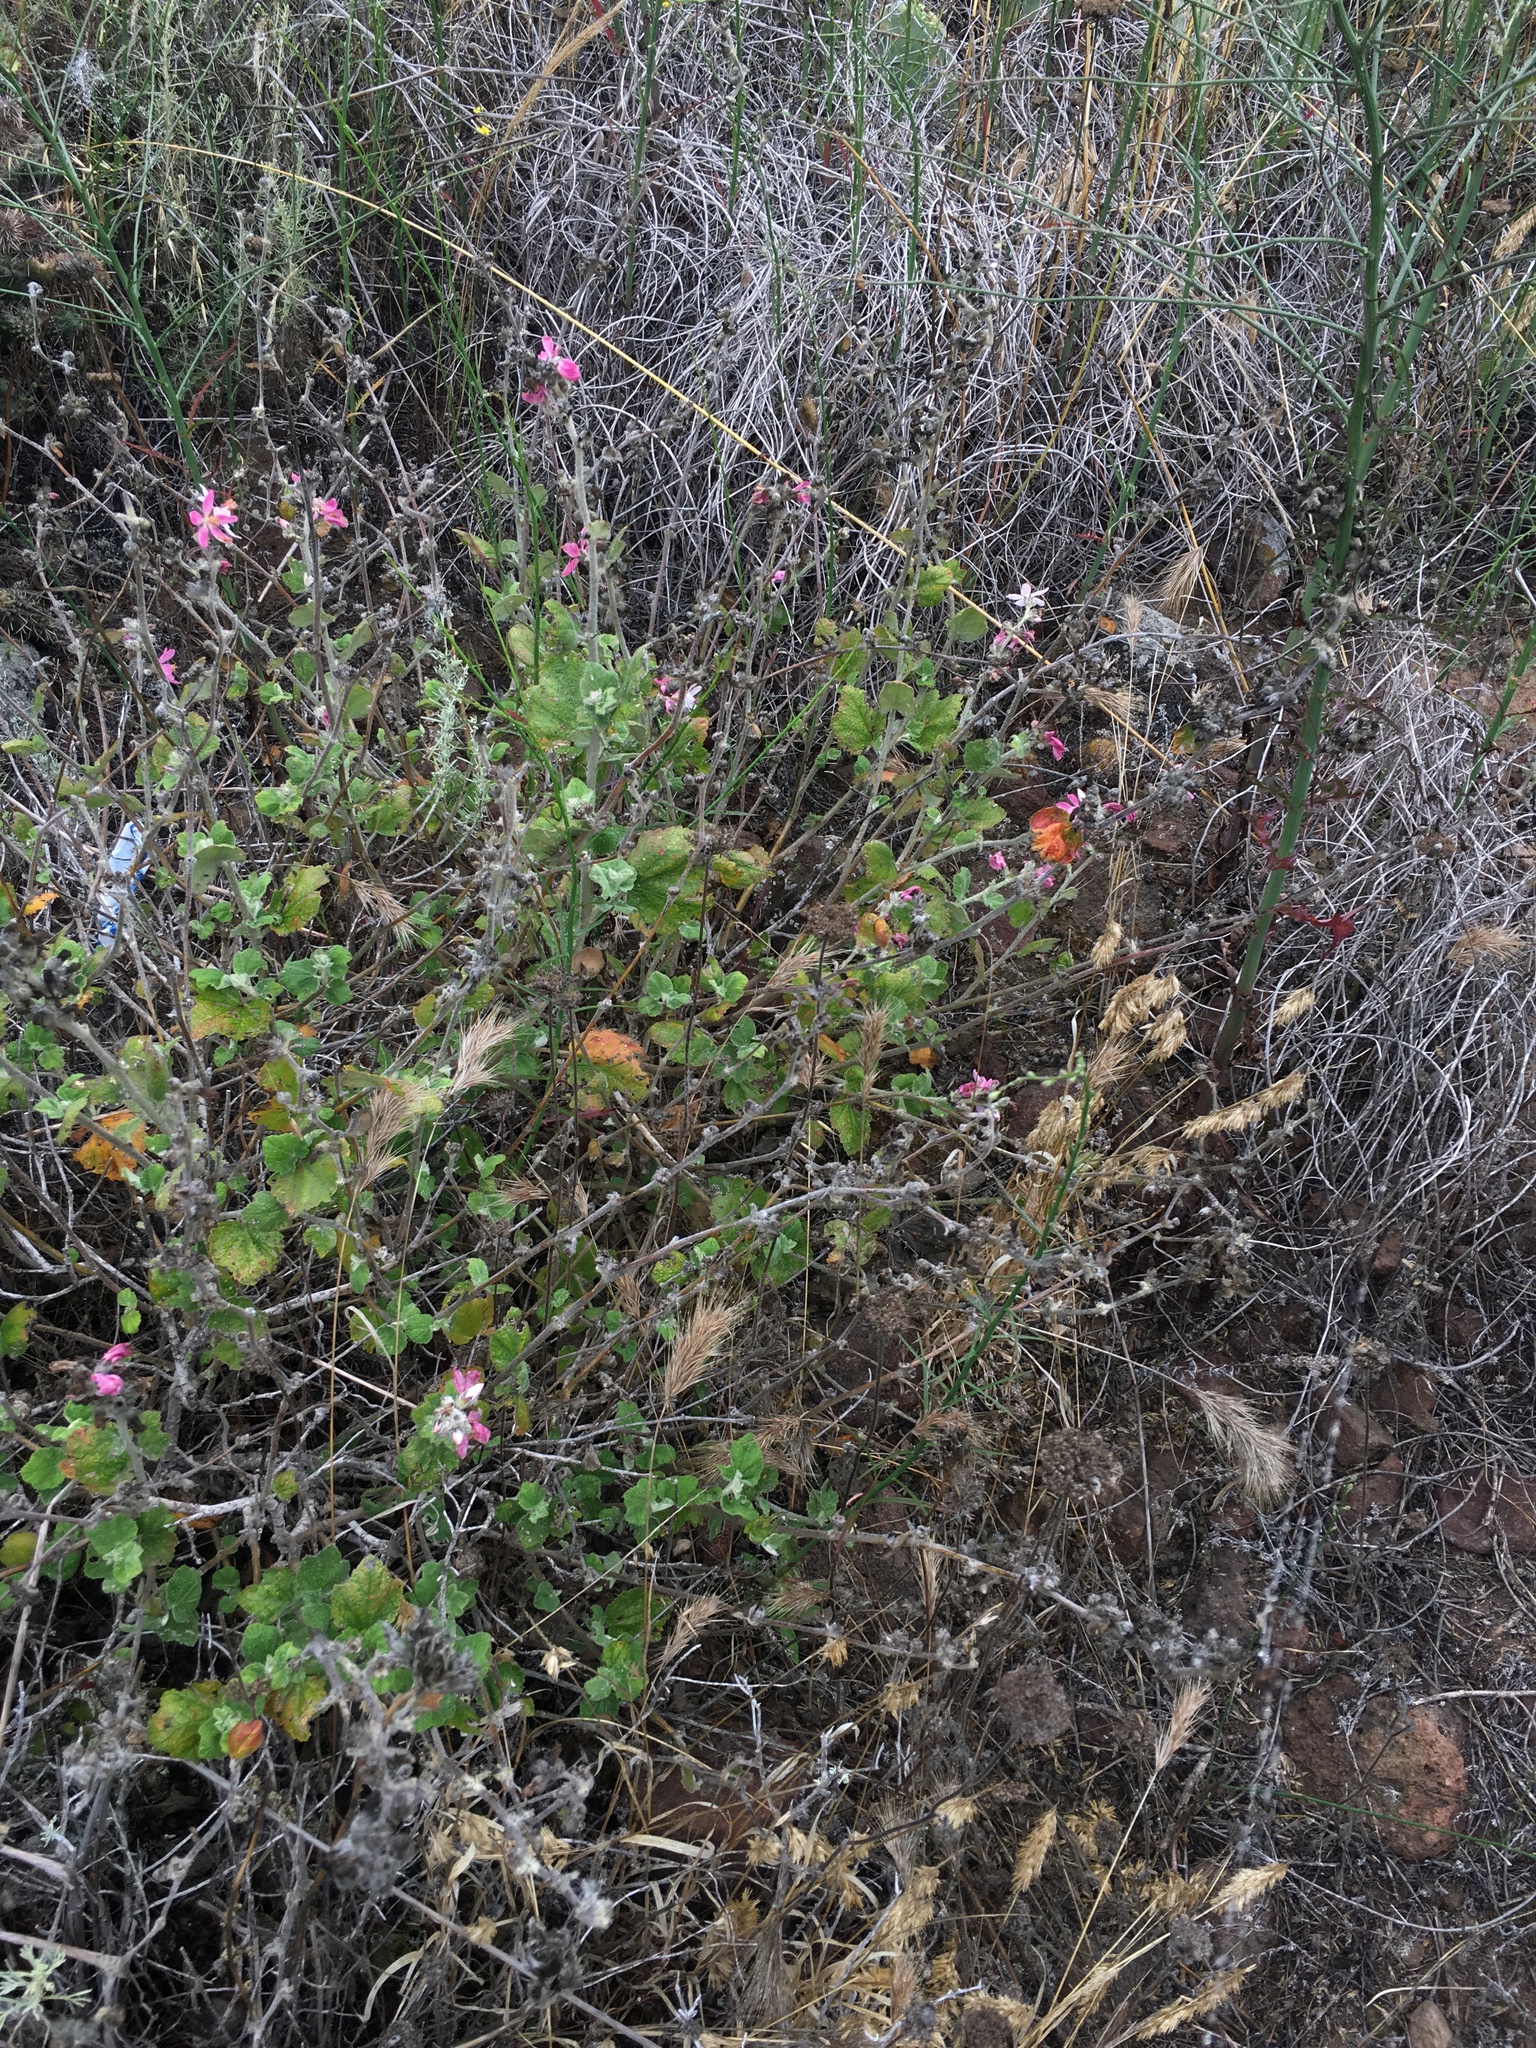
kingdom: Plantae
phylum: Tracheophyta
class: Magnoliopsida
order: Malvales
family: Malvaceae
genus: Malacothamnus
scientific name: Malacothamnus clementinus
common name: San clemente island bush-mallow
